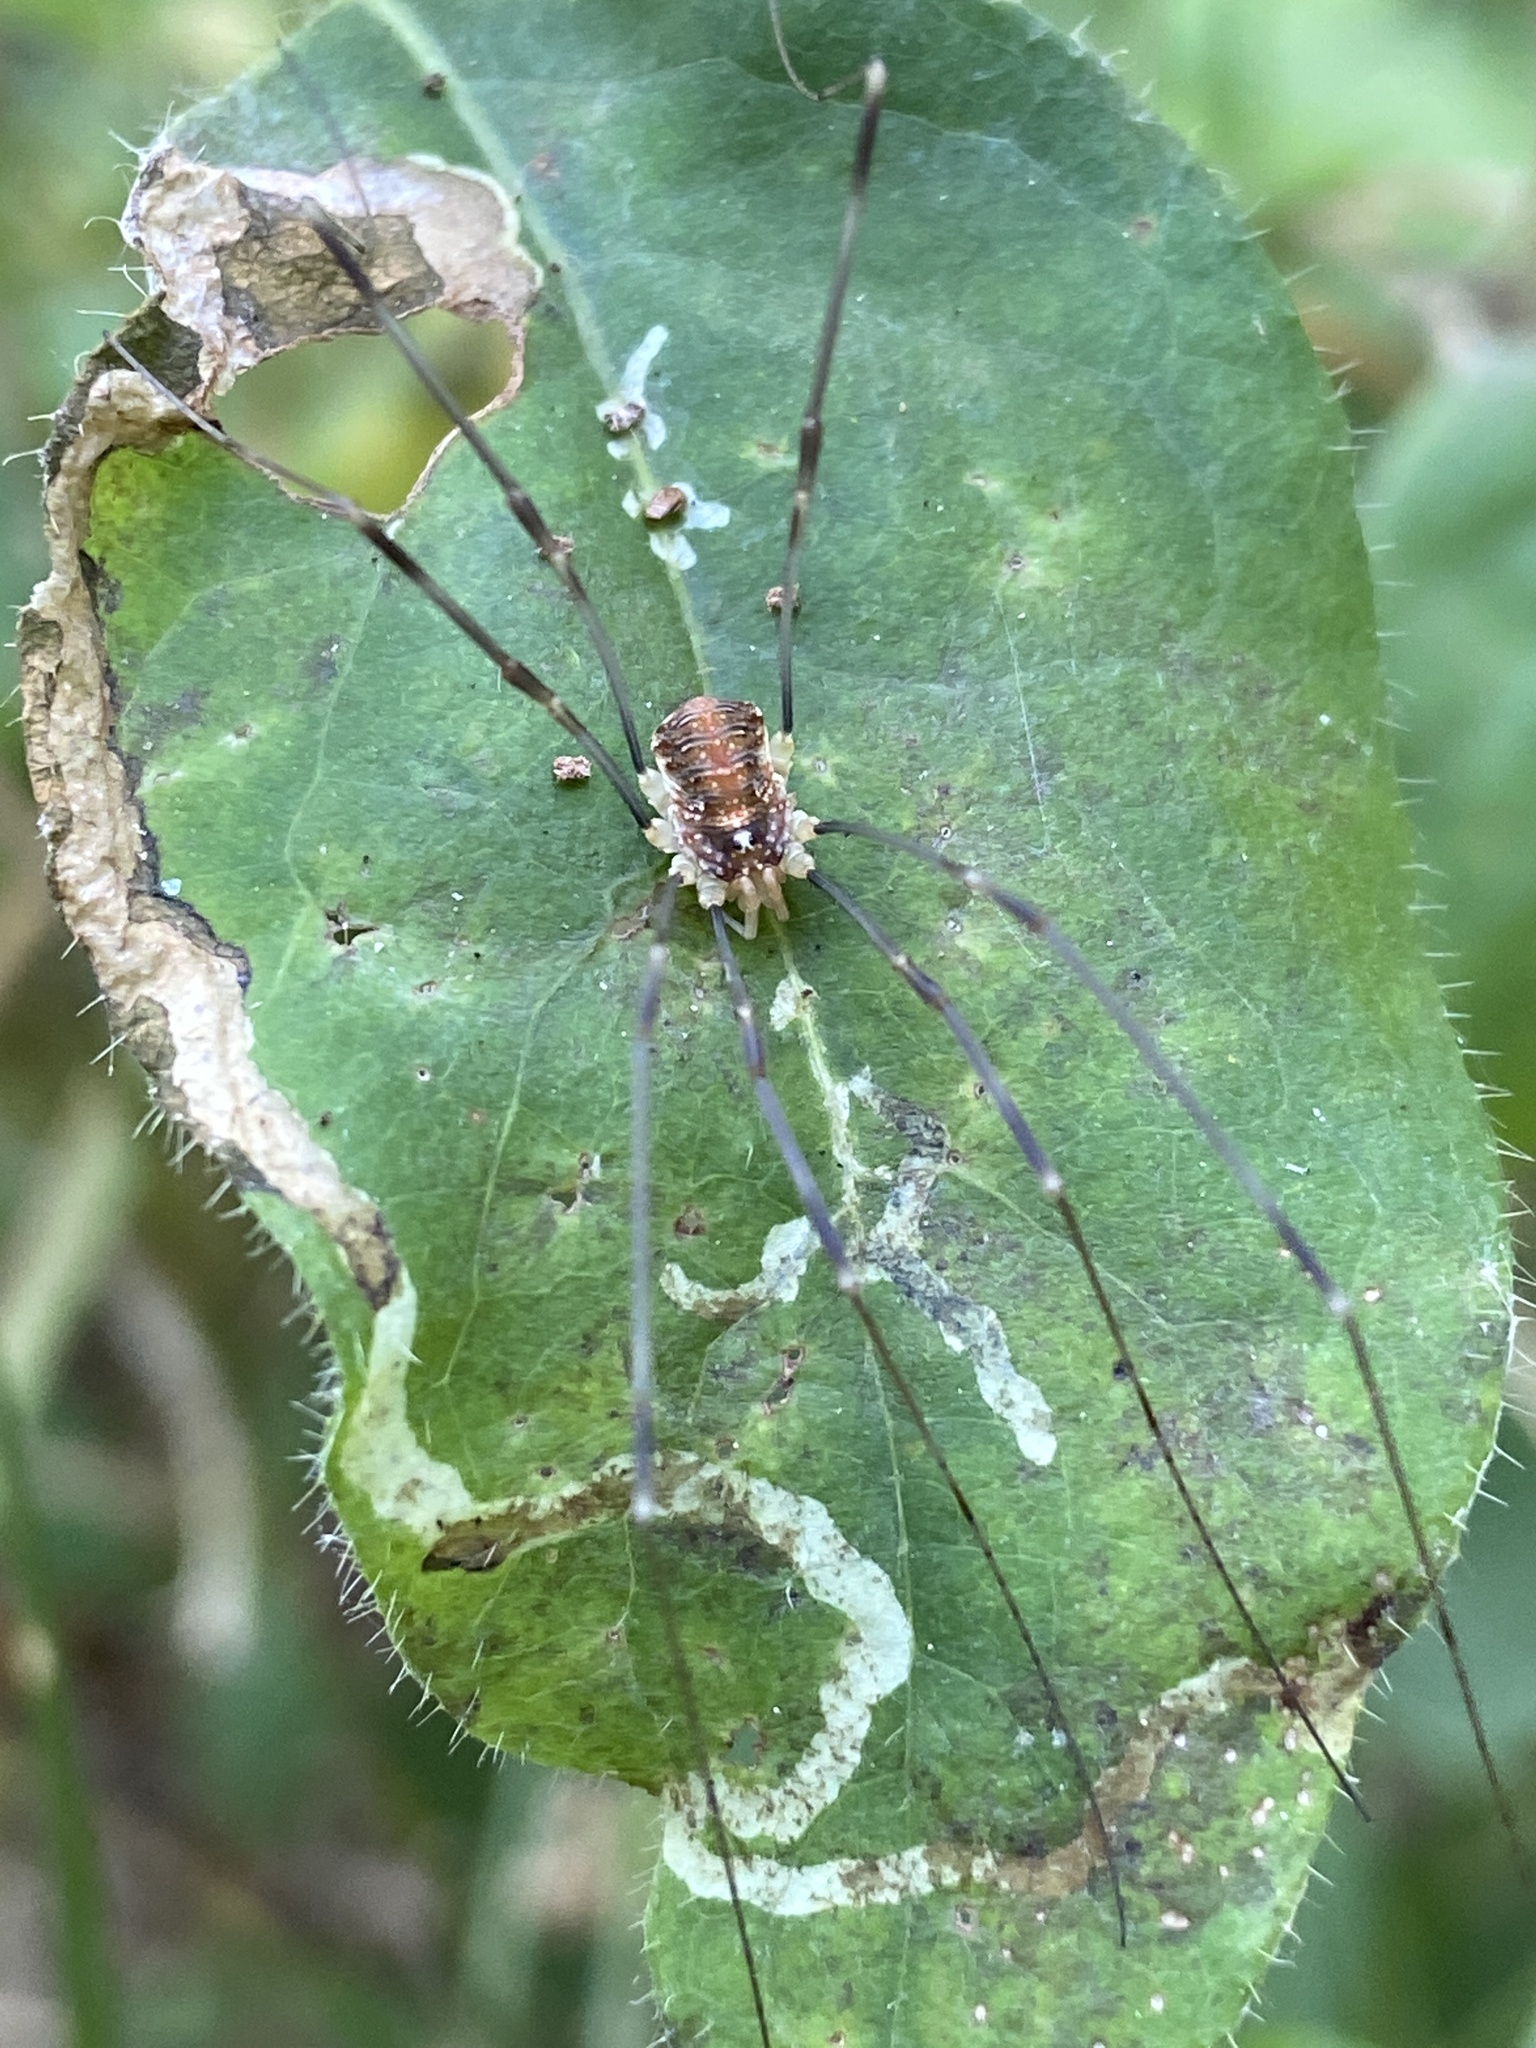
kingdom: Animalia
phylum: Arthropoda
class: Arachnida
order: Opiliones
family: Phalangiidae
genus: Opilio
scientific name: Opilio canestrinii
